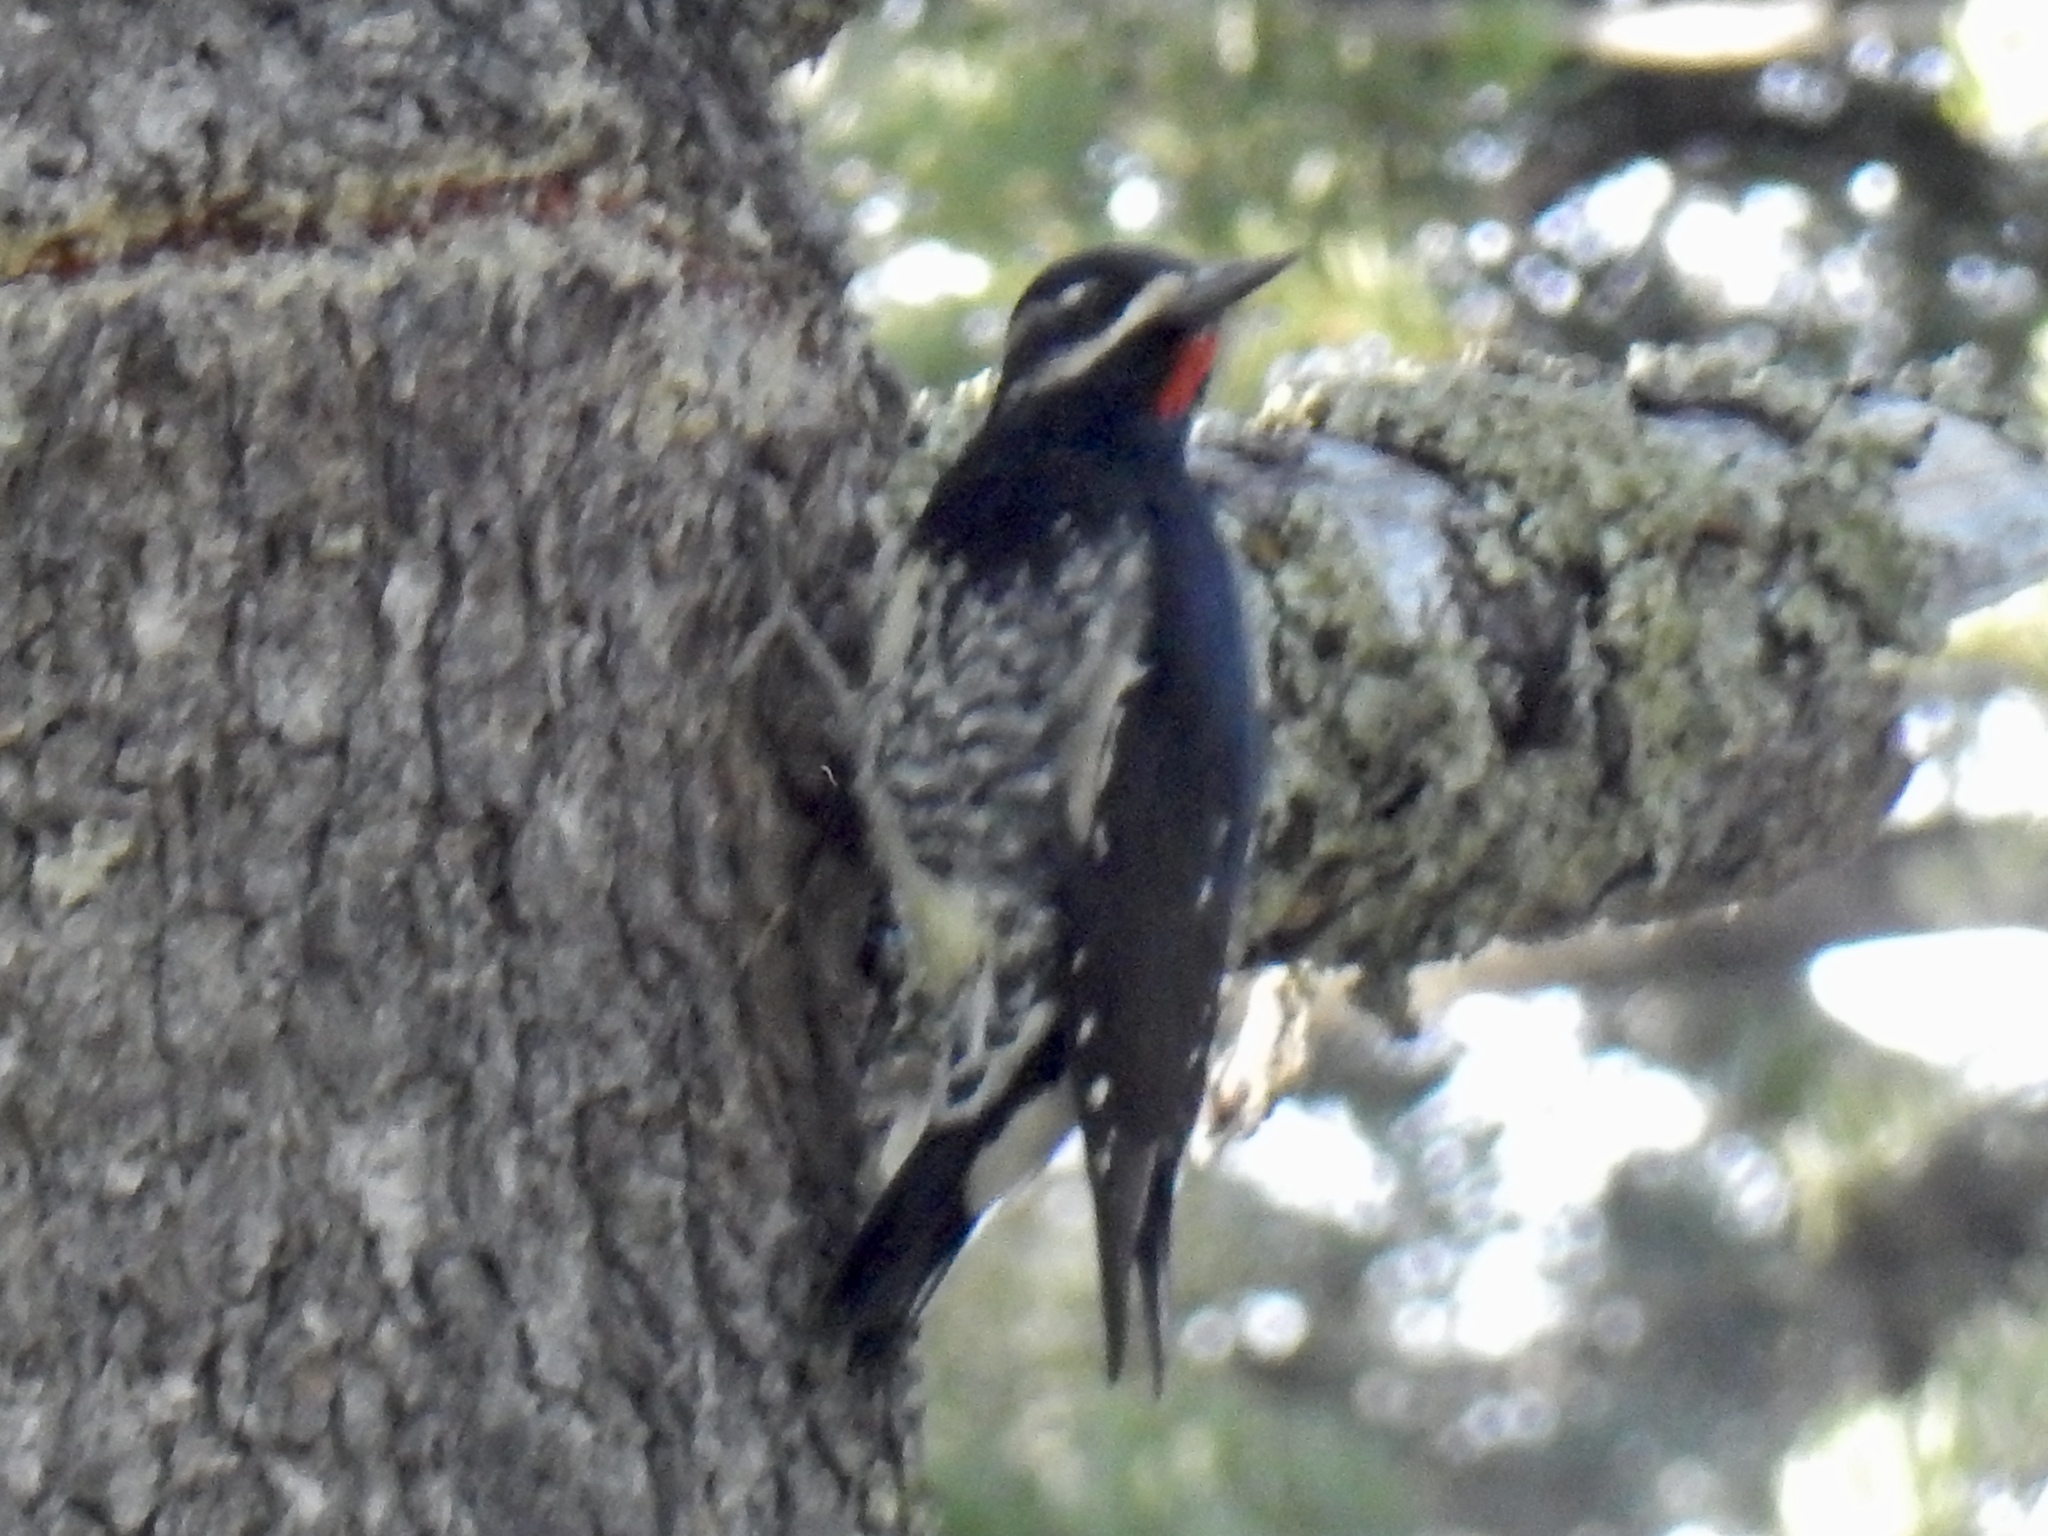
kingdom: Animalia
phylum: Chordata
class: Aves
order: Piciformes
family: Picidae
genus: Sphyrapicus
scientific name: Sphyrapicus thyroideus
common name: Williamson's sapsucker
